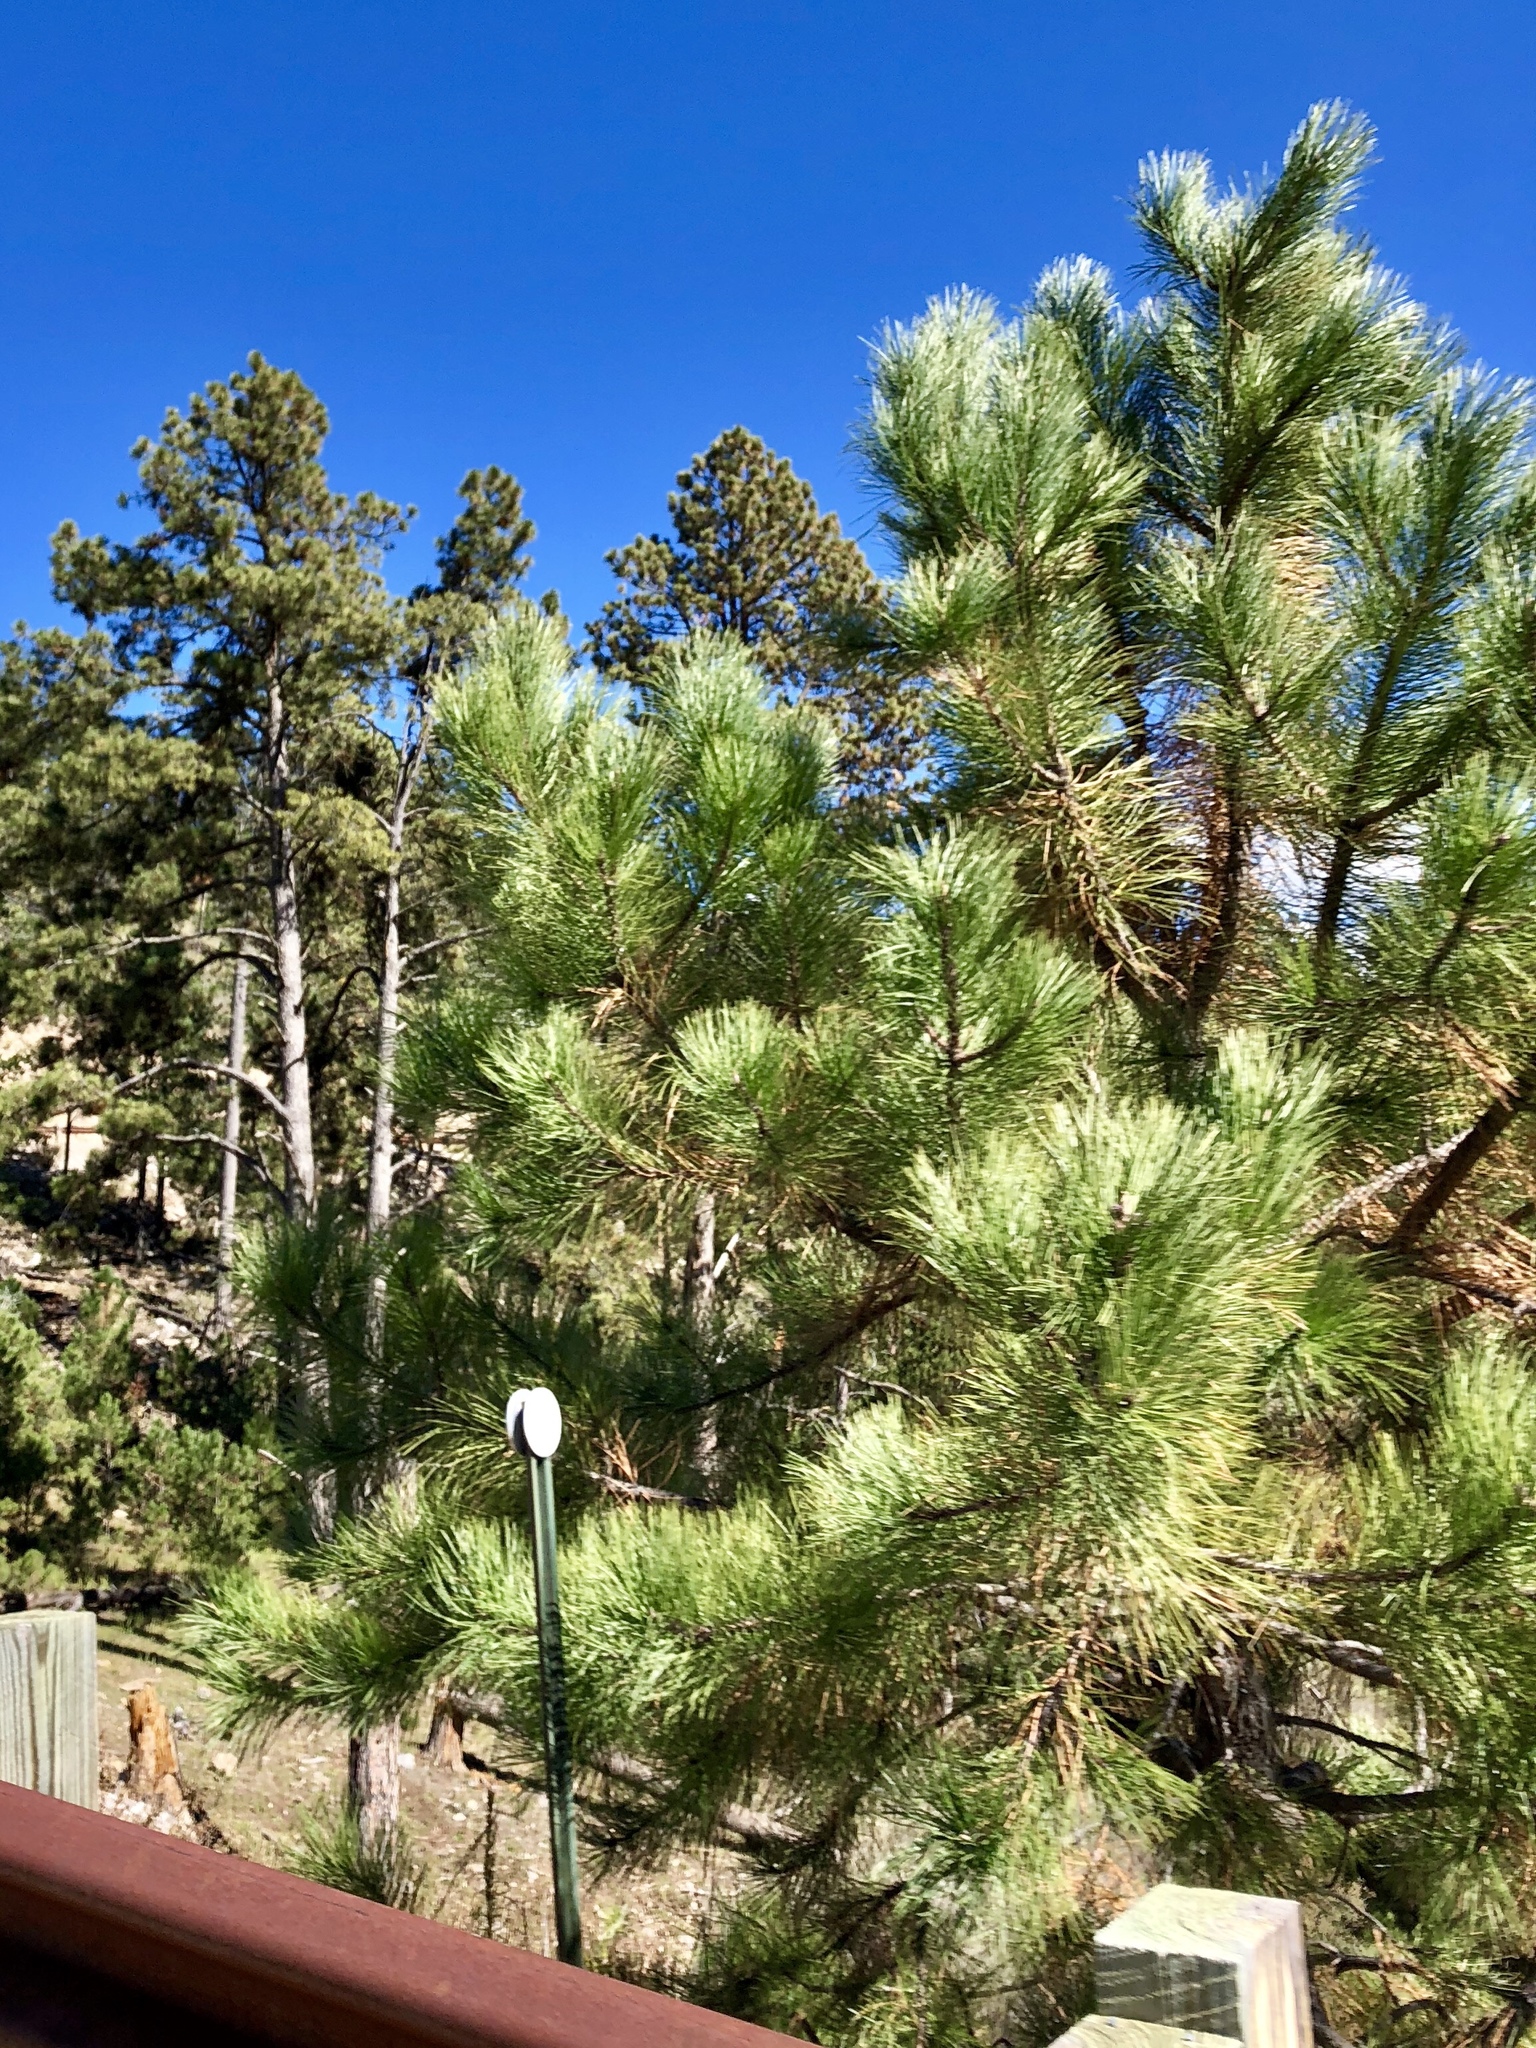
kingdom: Plantae
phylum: Tracheophyta
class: Pinopsida
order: Pinales
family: Pinaceae
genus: Pinus
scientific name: Pinus ponderosa
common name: Western yellow-pine
